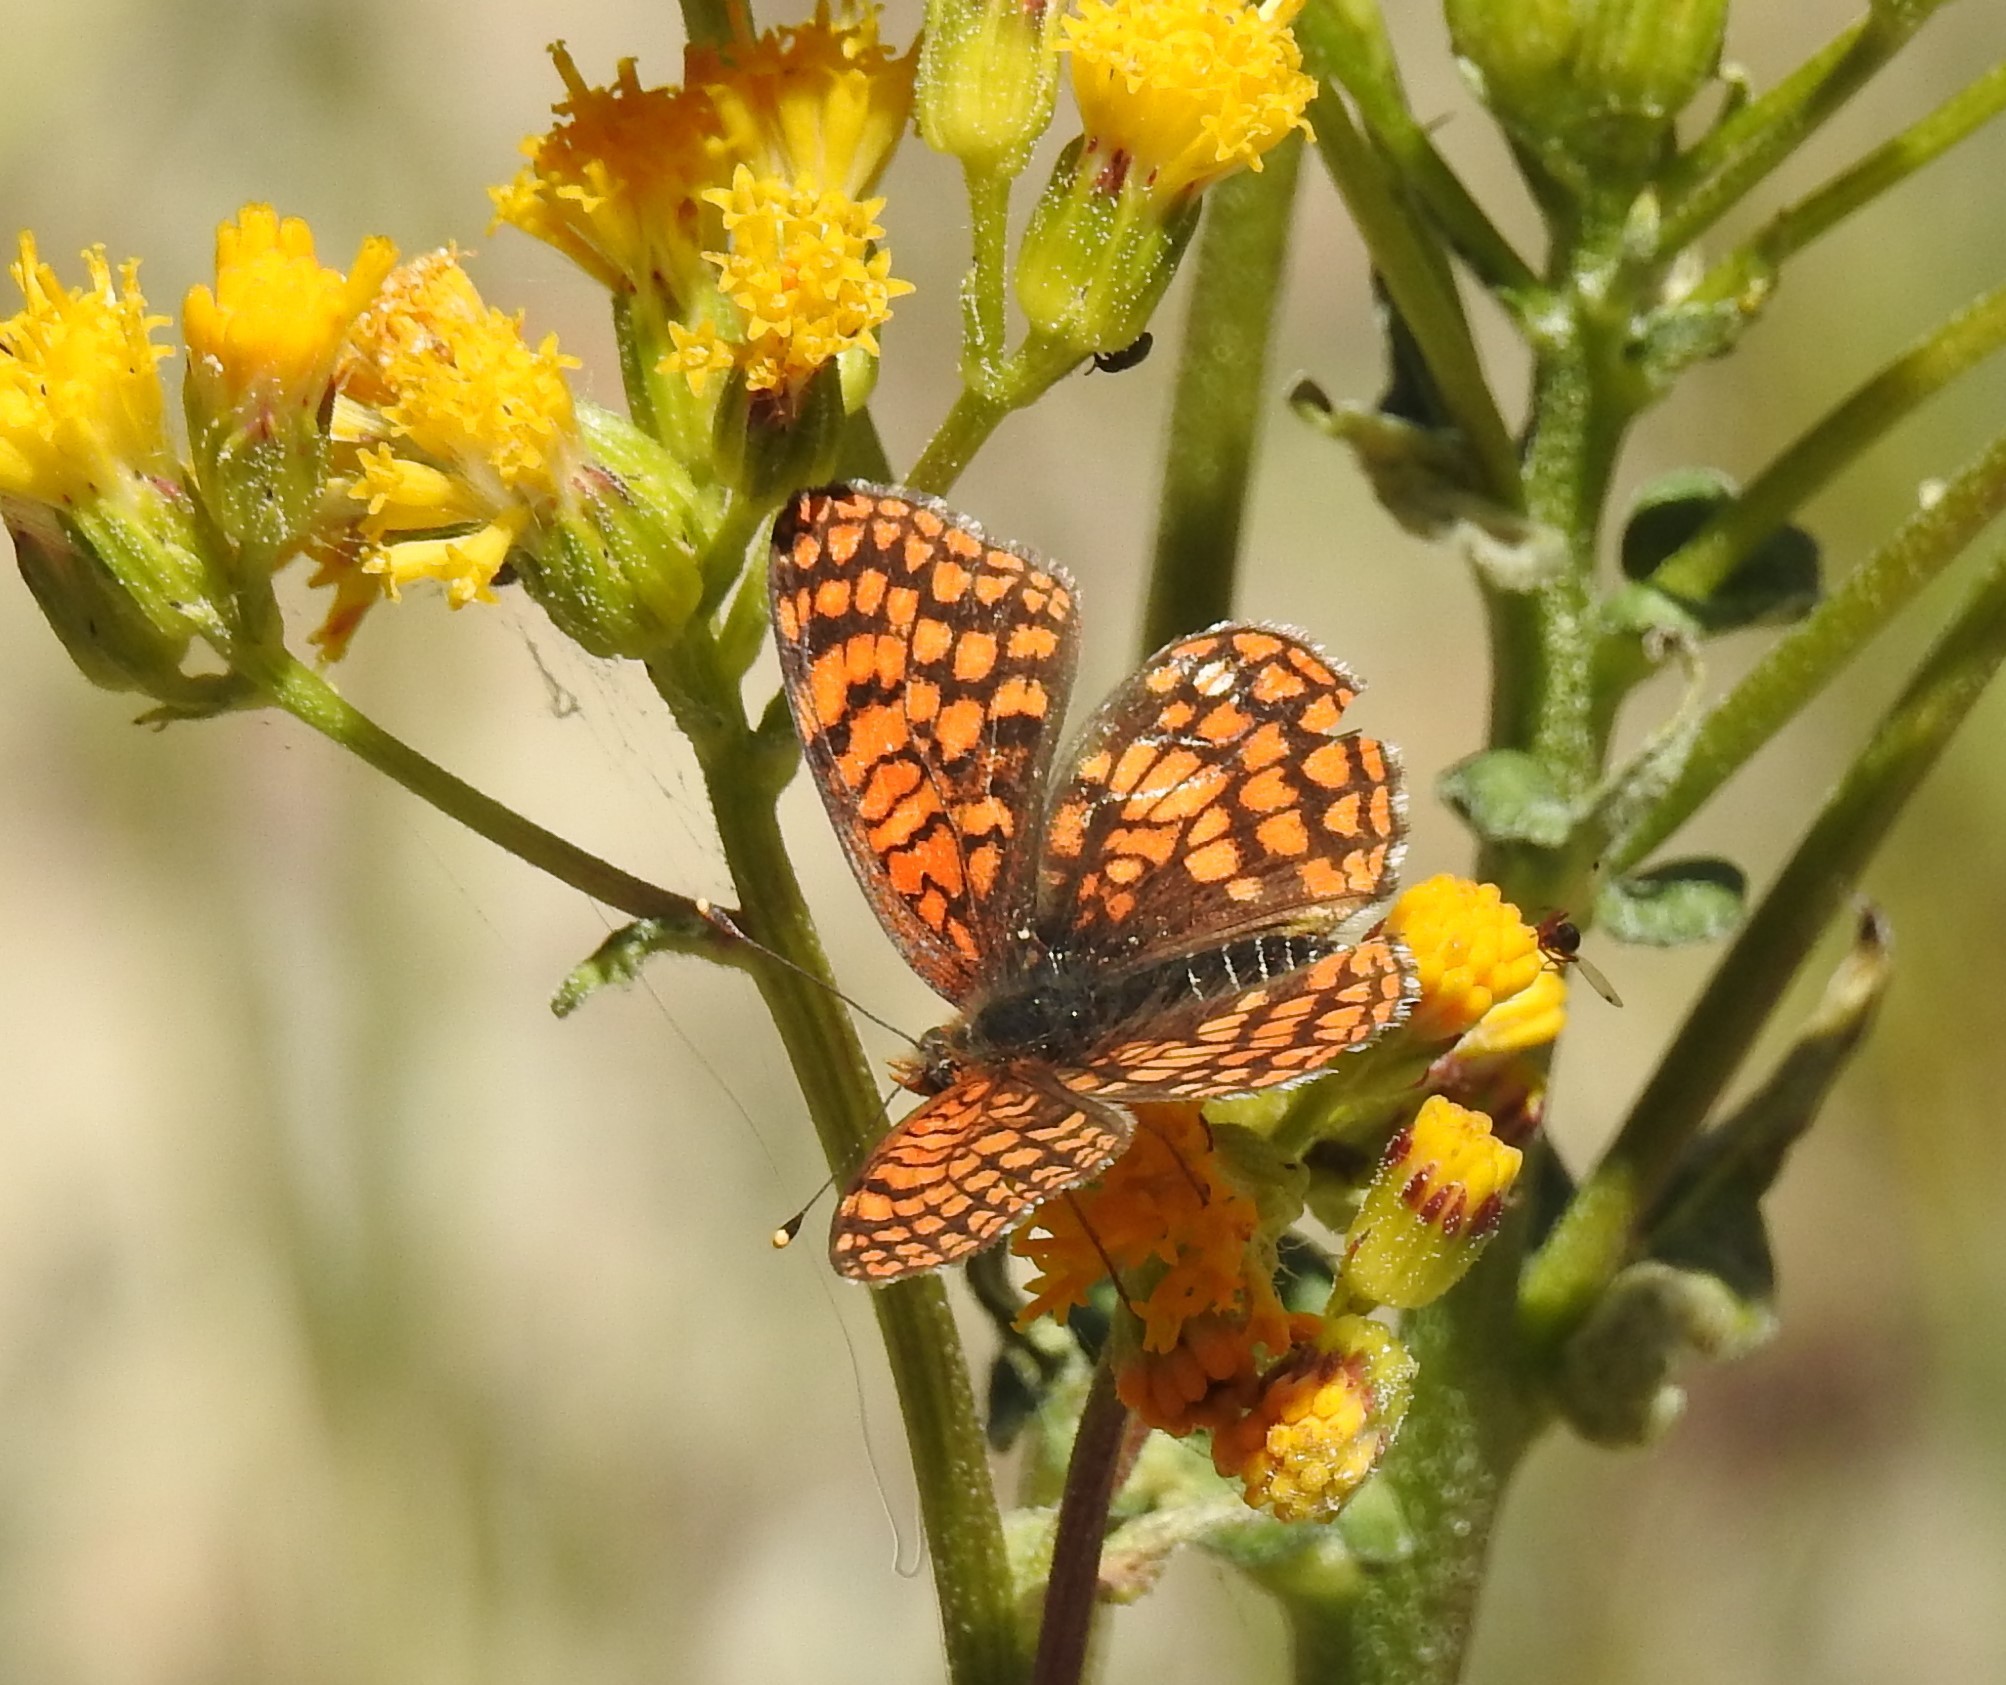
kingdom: Animalia
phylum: Arthropoda
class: Insecta
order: Lepidoptera
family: Nymphalidae
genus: Chlosyne
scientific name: Chlosyne palla
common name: Northern checkerspot
